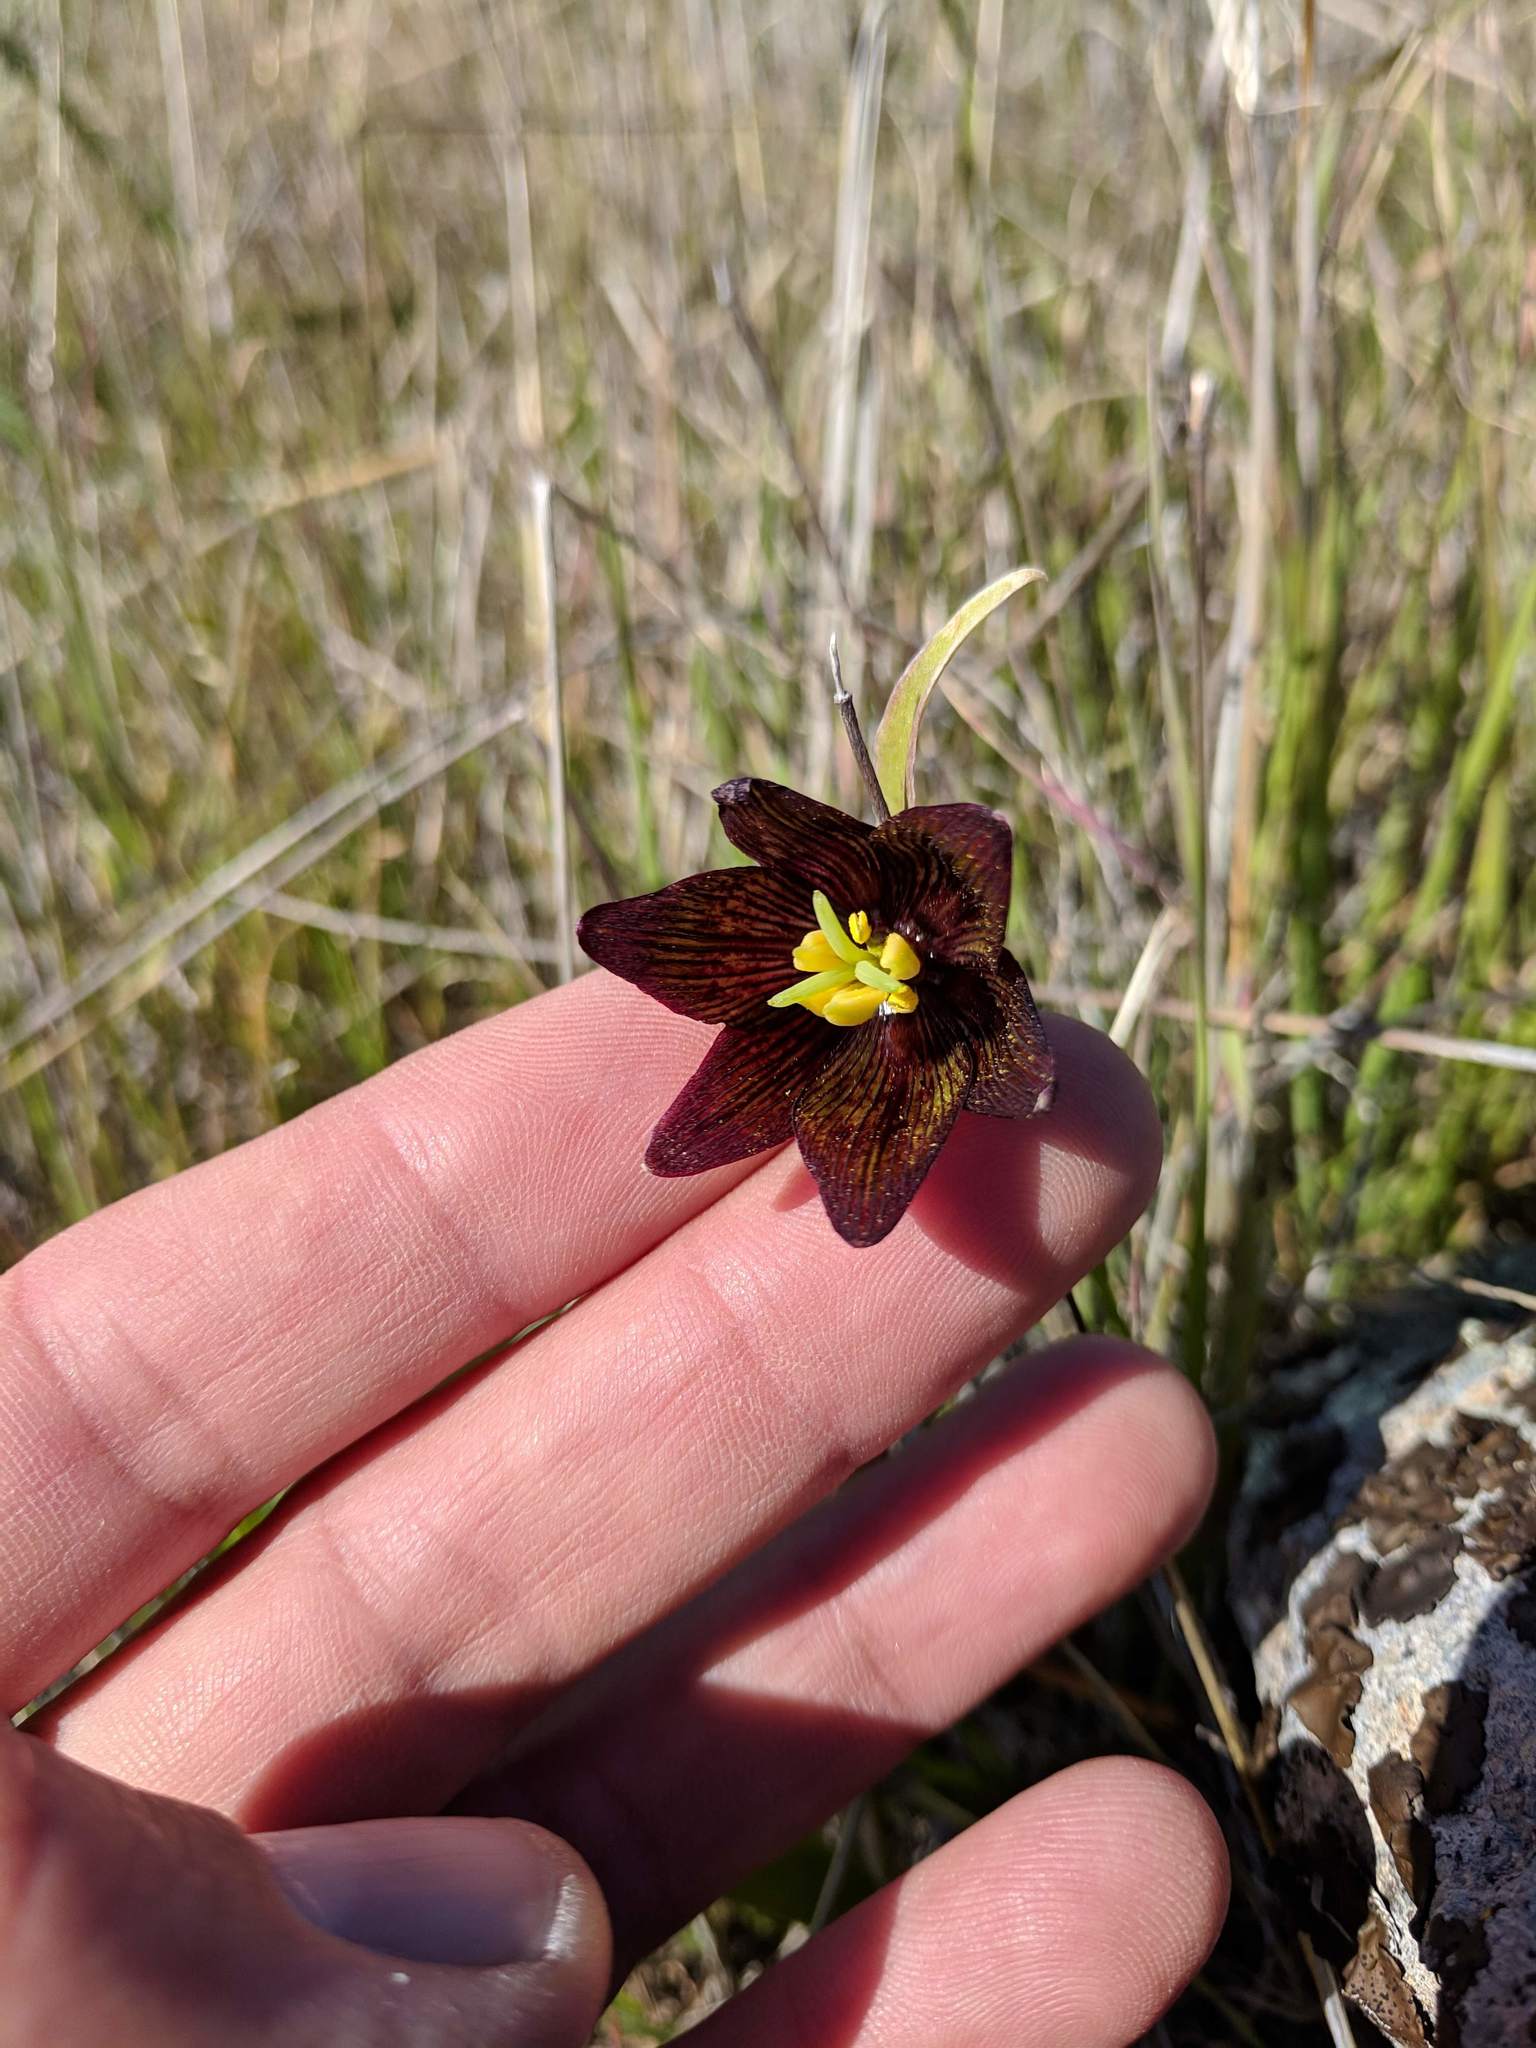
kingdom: Plantae
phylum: Tracheophyta
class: Liliopsida
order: Liliales
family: Liliaceae
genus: Fritillaria
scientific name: Fritillaria biflora
